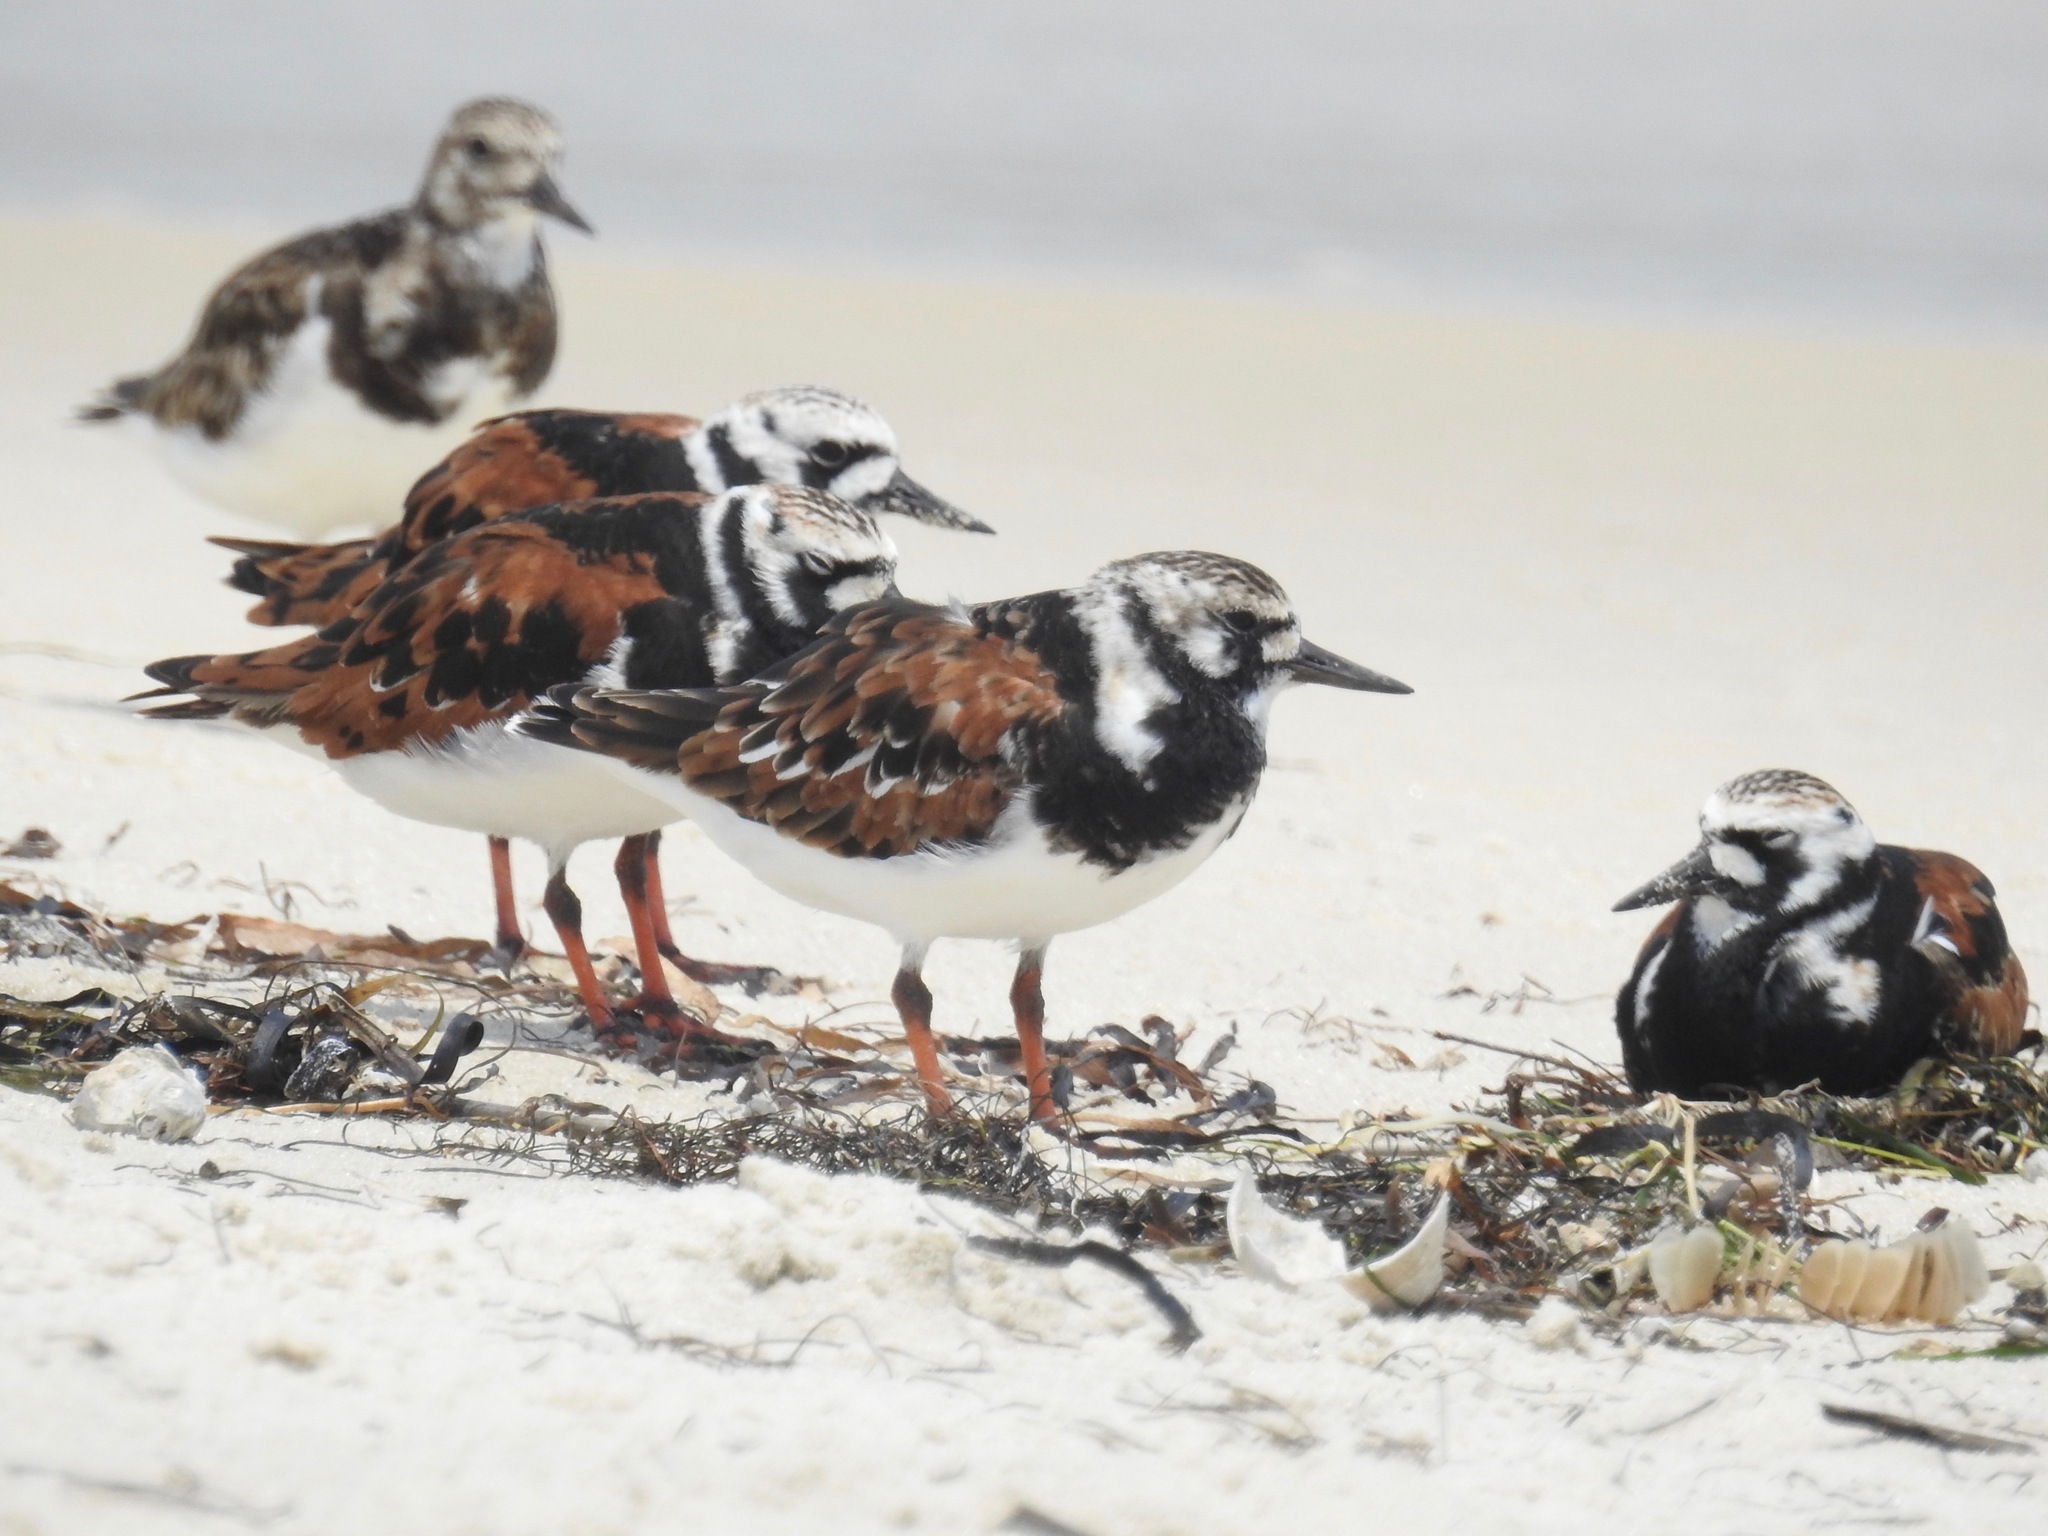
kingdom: Animalia
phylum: Chordata
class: Aves
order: Charadriiformes
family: Scolopacidae
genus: Arenaria
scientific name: Arenaria interpres
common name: Ruddy turnstone
